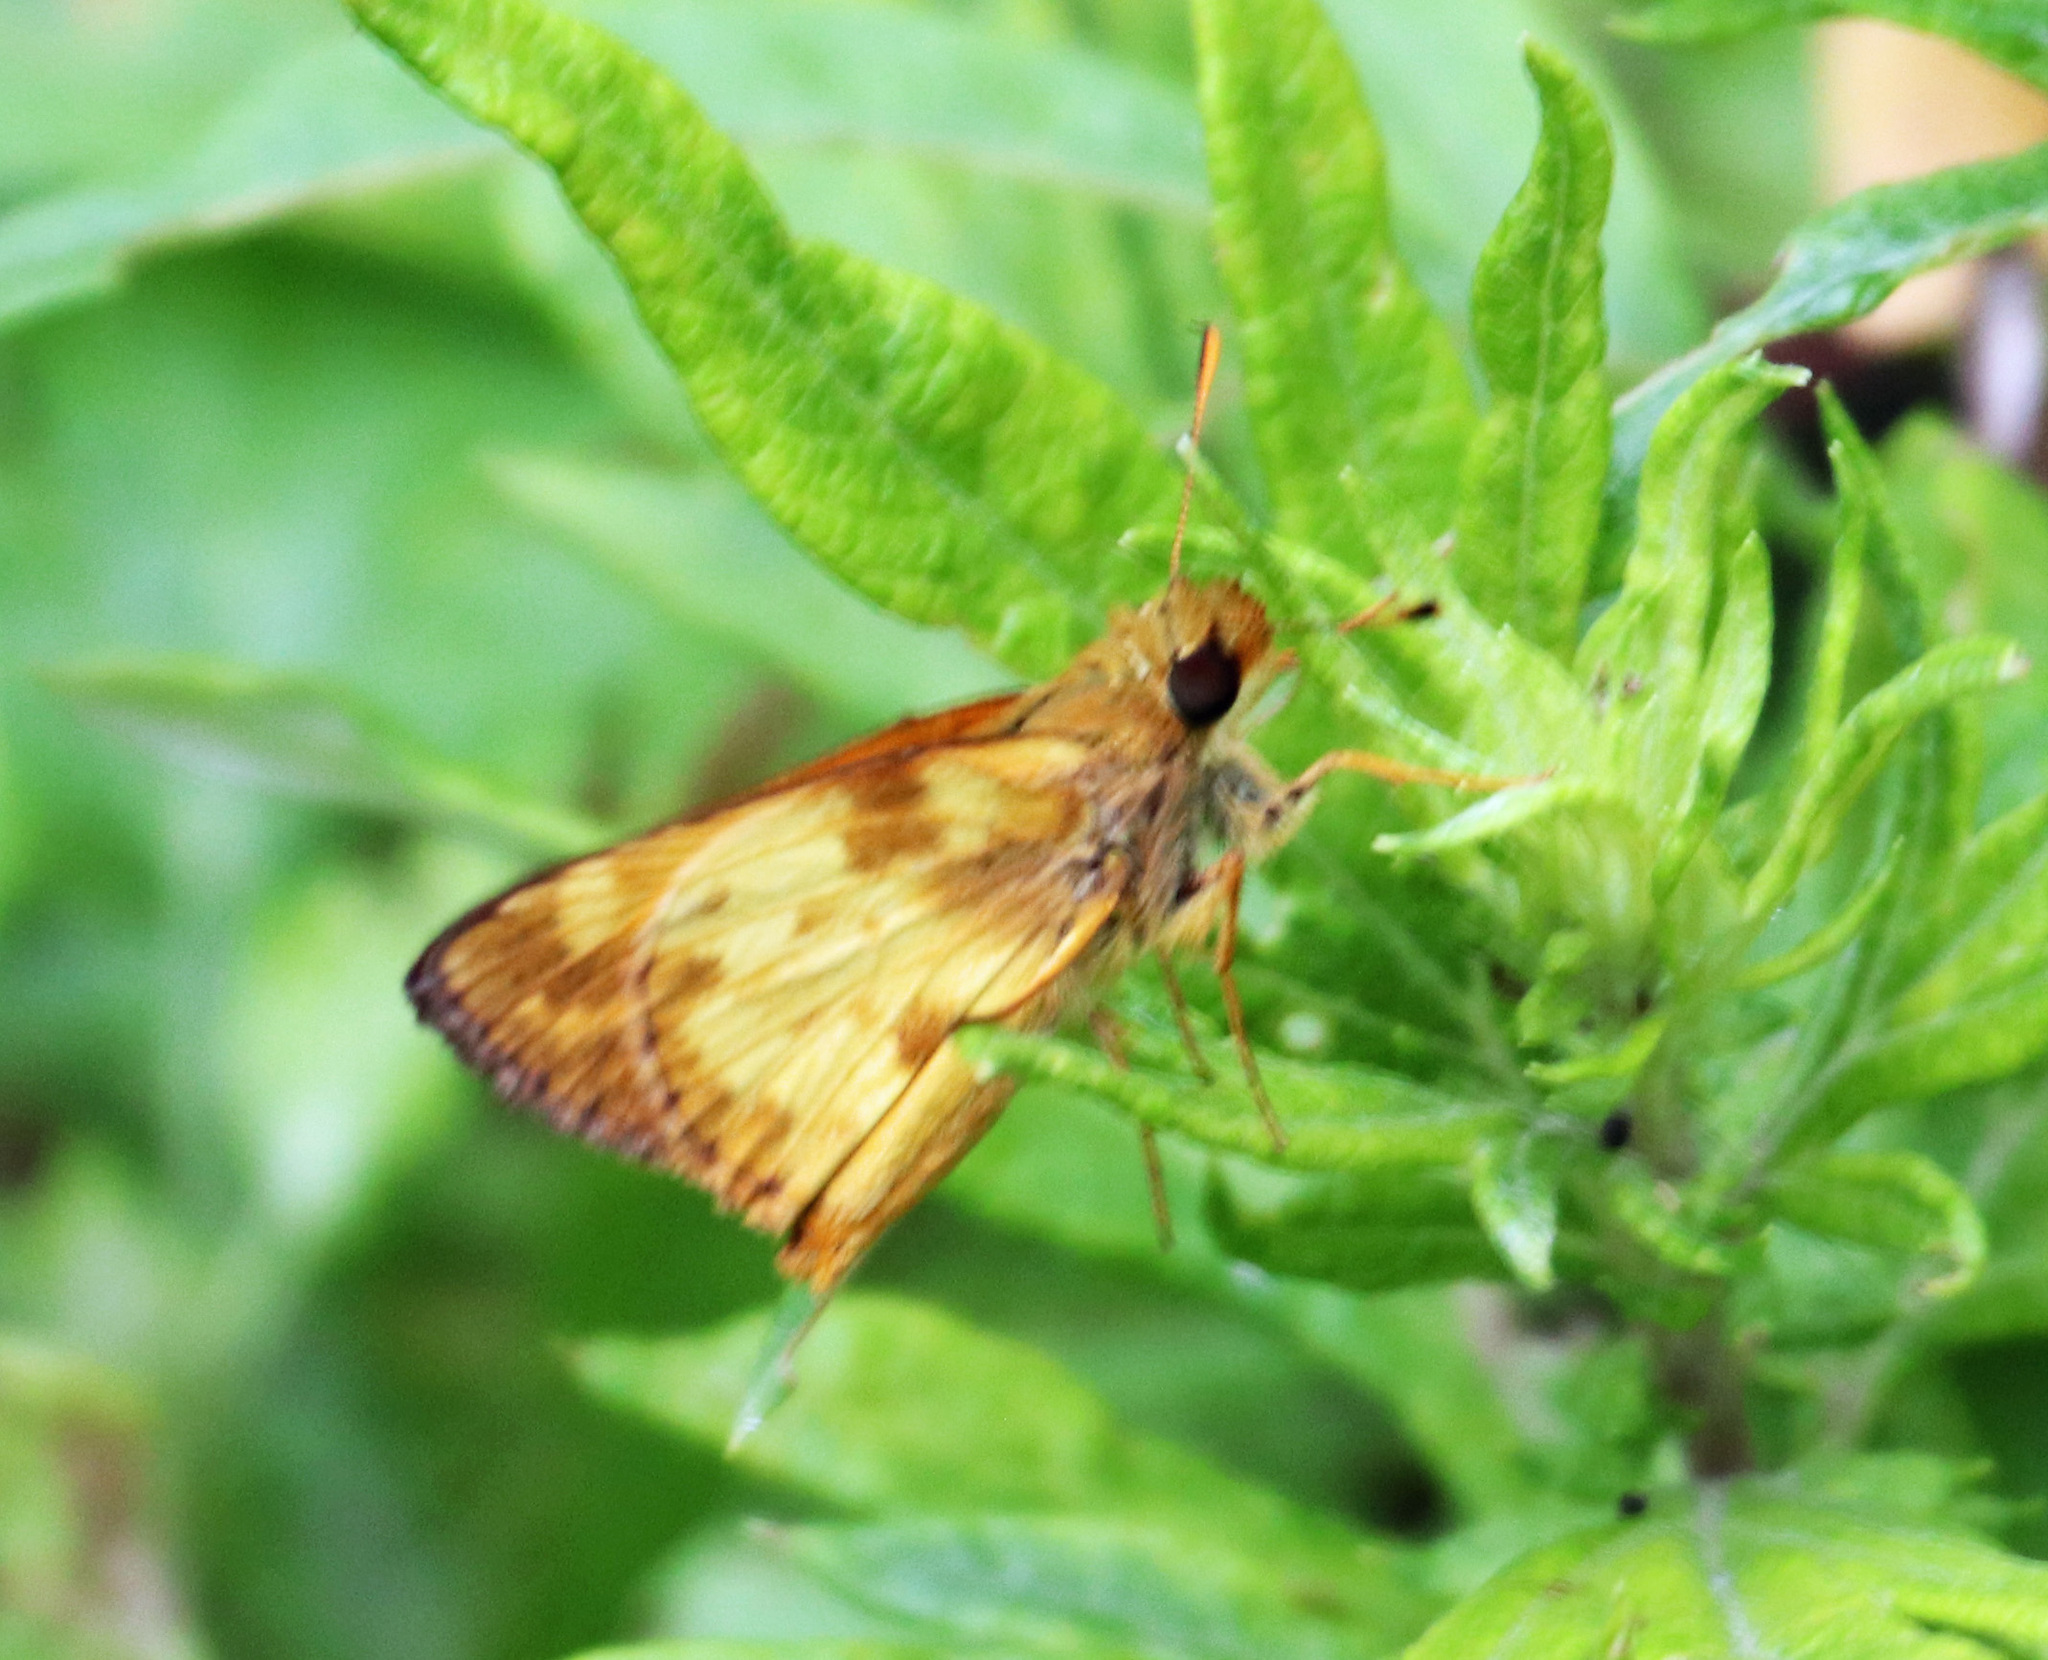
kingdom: Animalia
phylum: Arthropoda
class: Insecta
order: Lepidoptera
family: Hesperiidae
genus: Lon
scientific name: Lon zabulon
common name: Zabulon skipper
